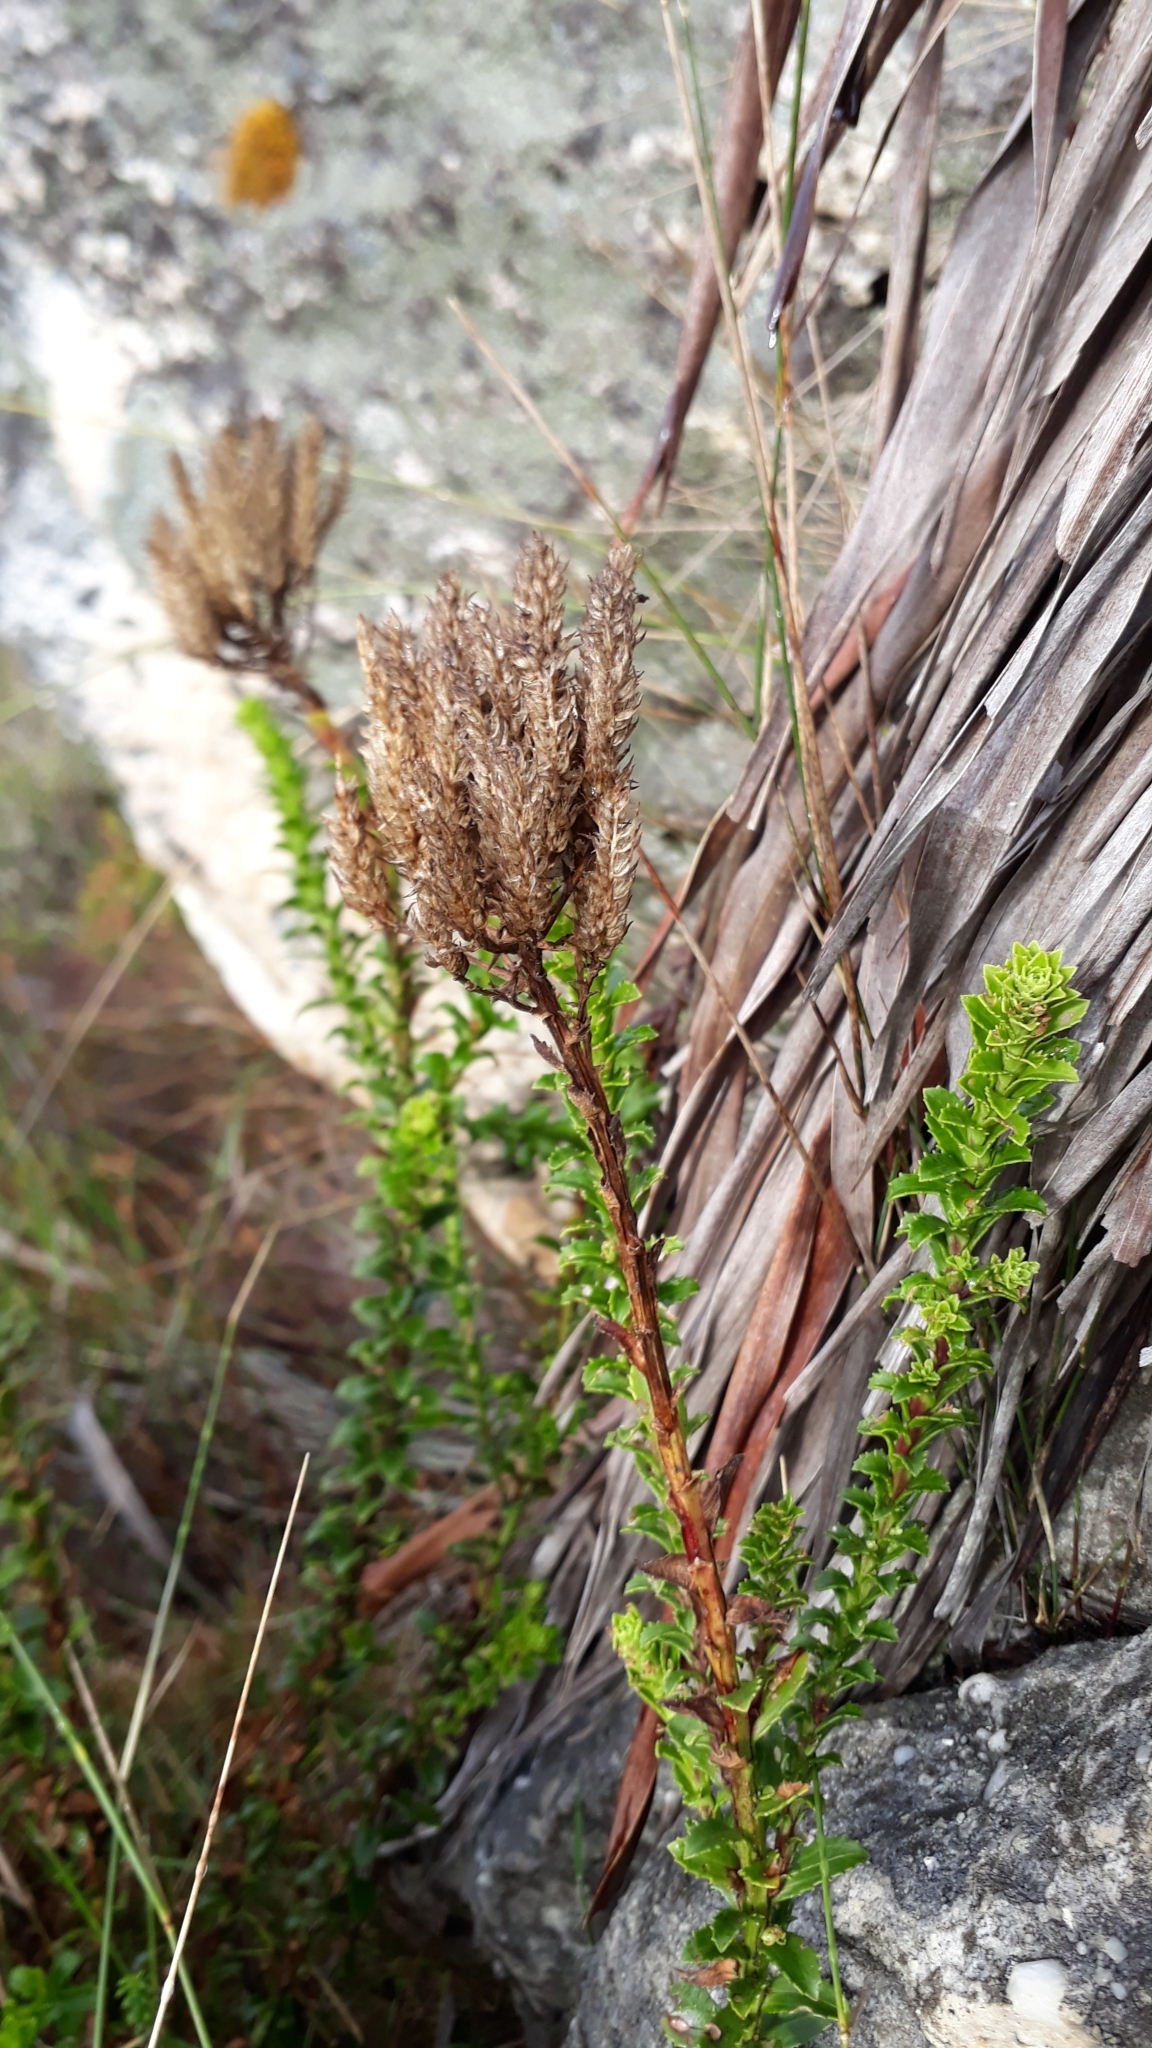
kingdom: Plantae
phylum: Tracheophyta
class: Magnoliopsida
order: Lamiales
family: Scrophulariaceae
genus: Pseudoselago
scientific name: Pseudoselago serrata
